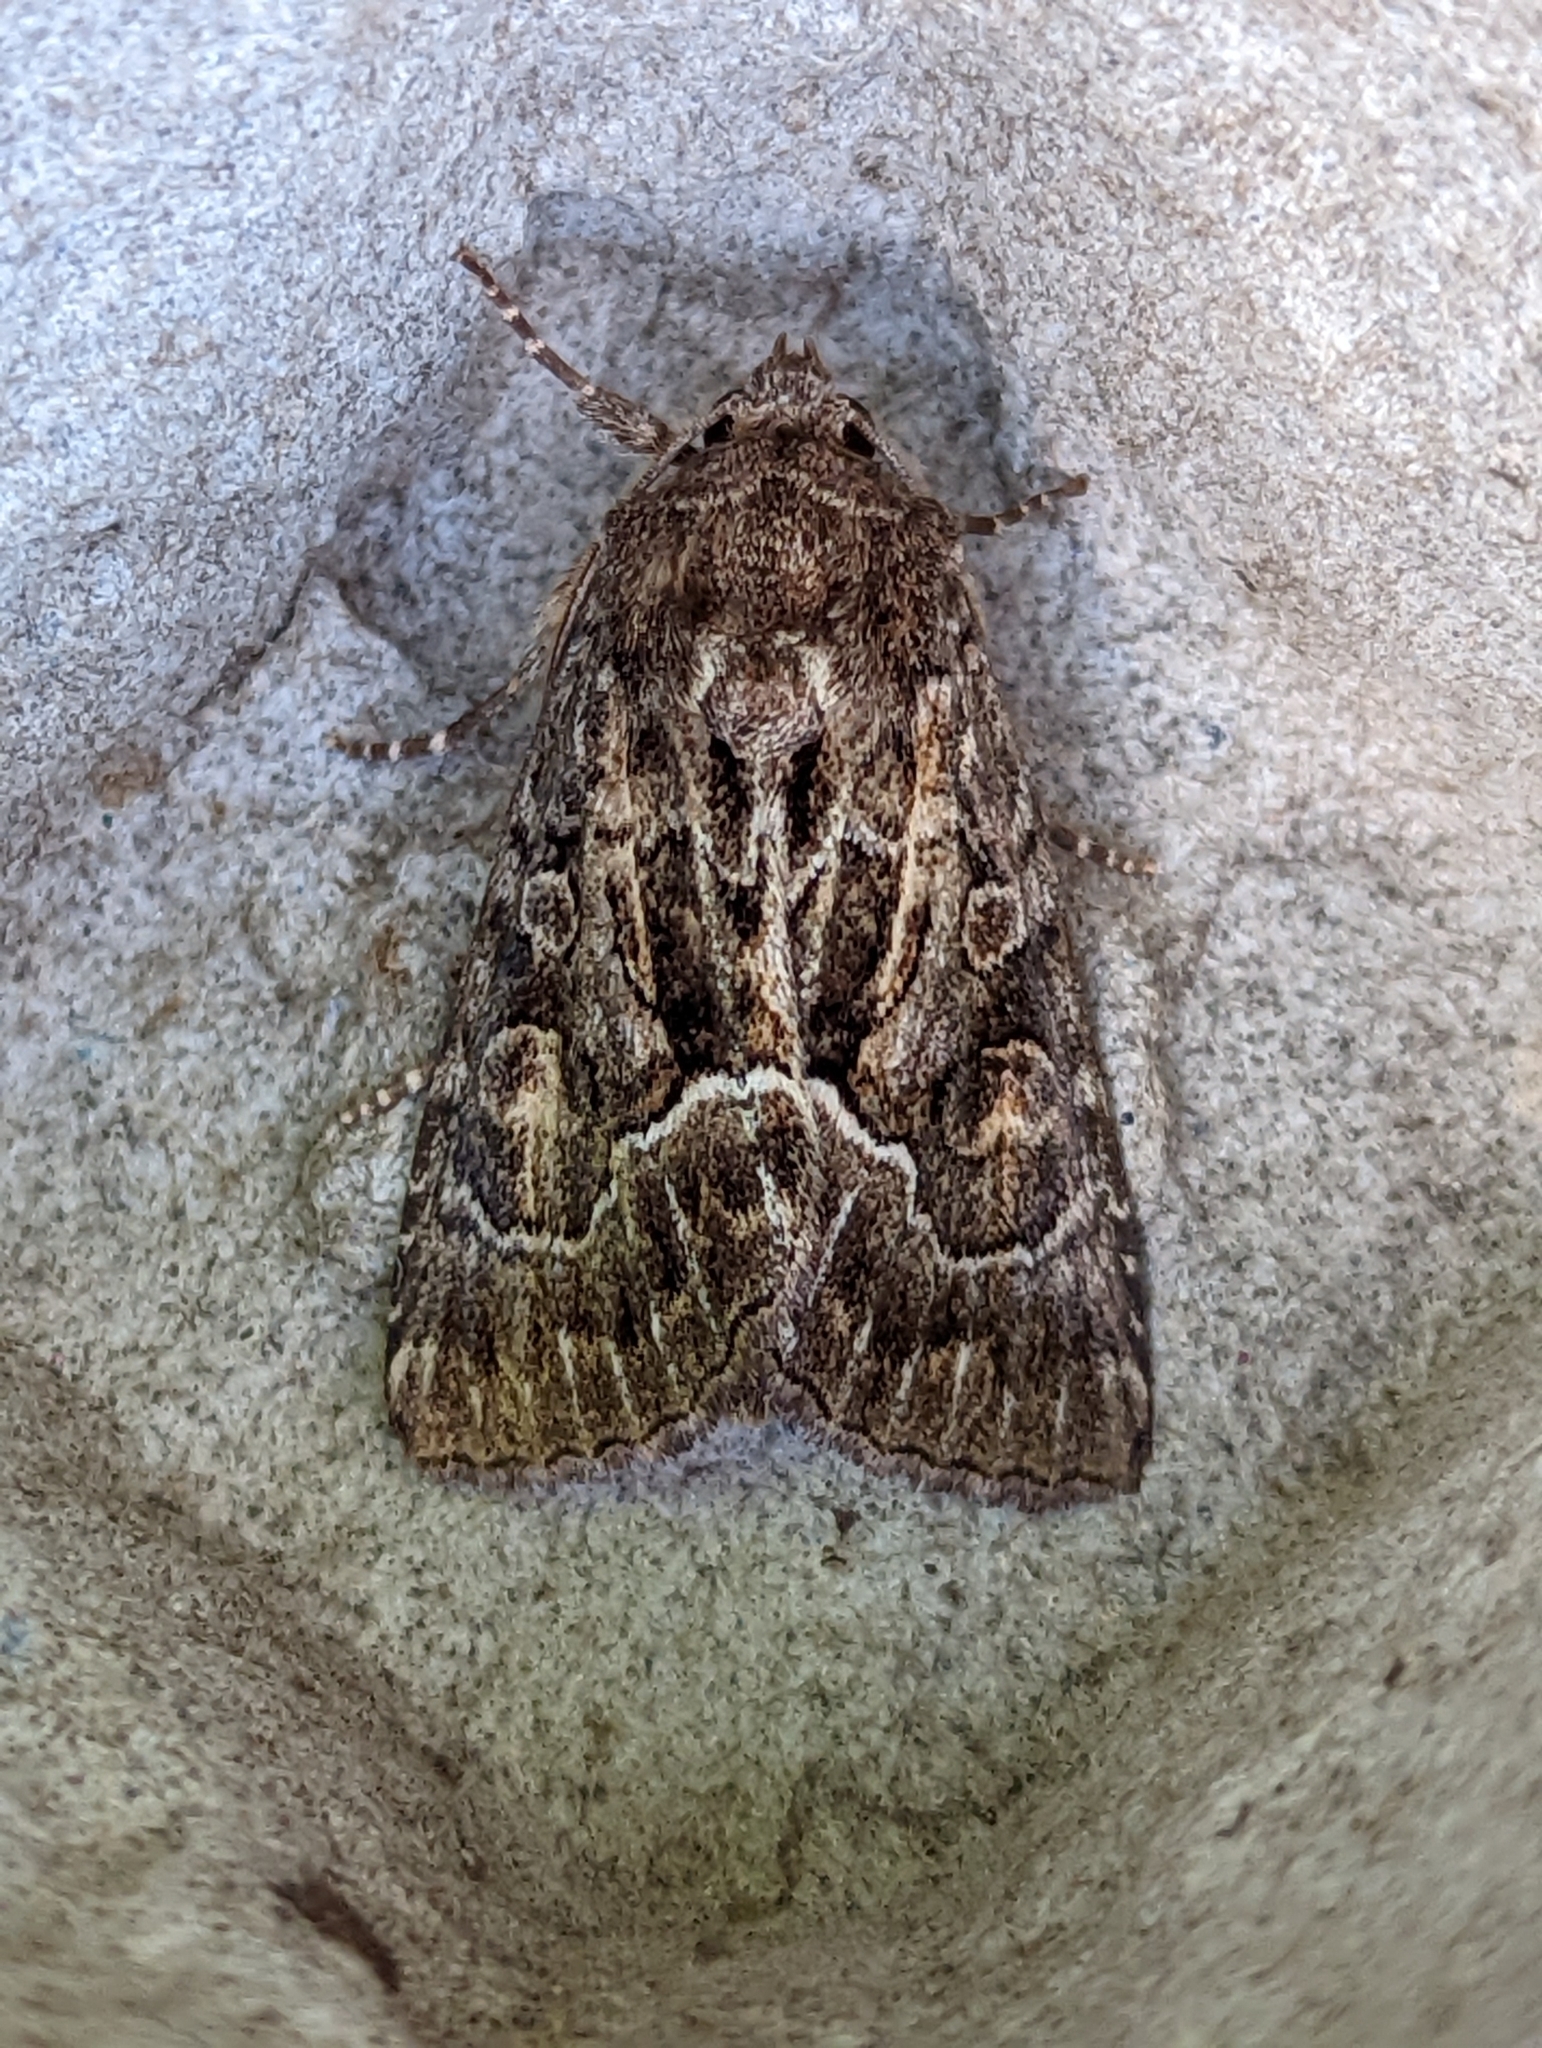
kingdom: Animalia
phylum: Arthropoda
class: Insecta
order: Lepidoptera
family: Noctuidae
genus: Thalpophila
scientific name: Thalpophila matura
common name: Straw underwing
